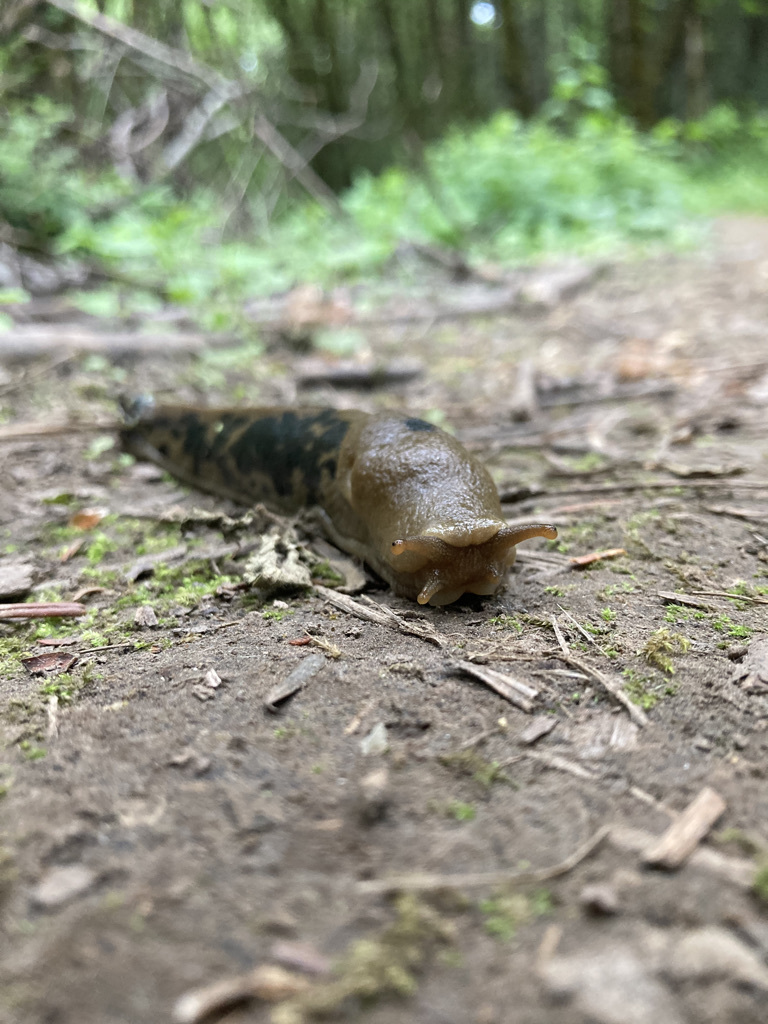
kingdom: Animalia
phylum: Mollusca
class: Gastropoda
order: Stylommatophora
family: Ariolimacidae
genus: Ariolimax
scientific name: Ariolimax columbianus
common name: Pacific banana slug
